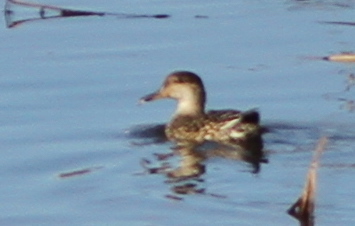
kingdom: Animalia
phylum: Chordata
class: Aves
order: Anseriformes
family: Anatidae
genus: Anas
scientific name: Anas crecca
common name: Eurasian teal
